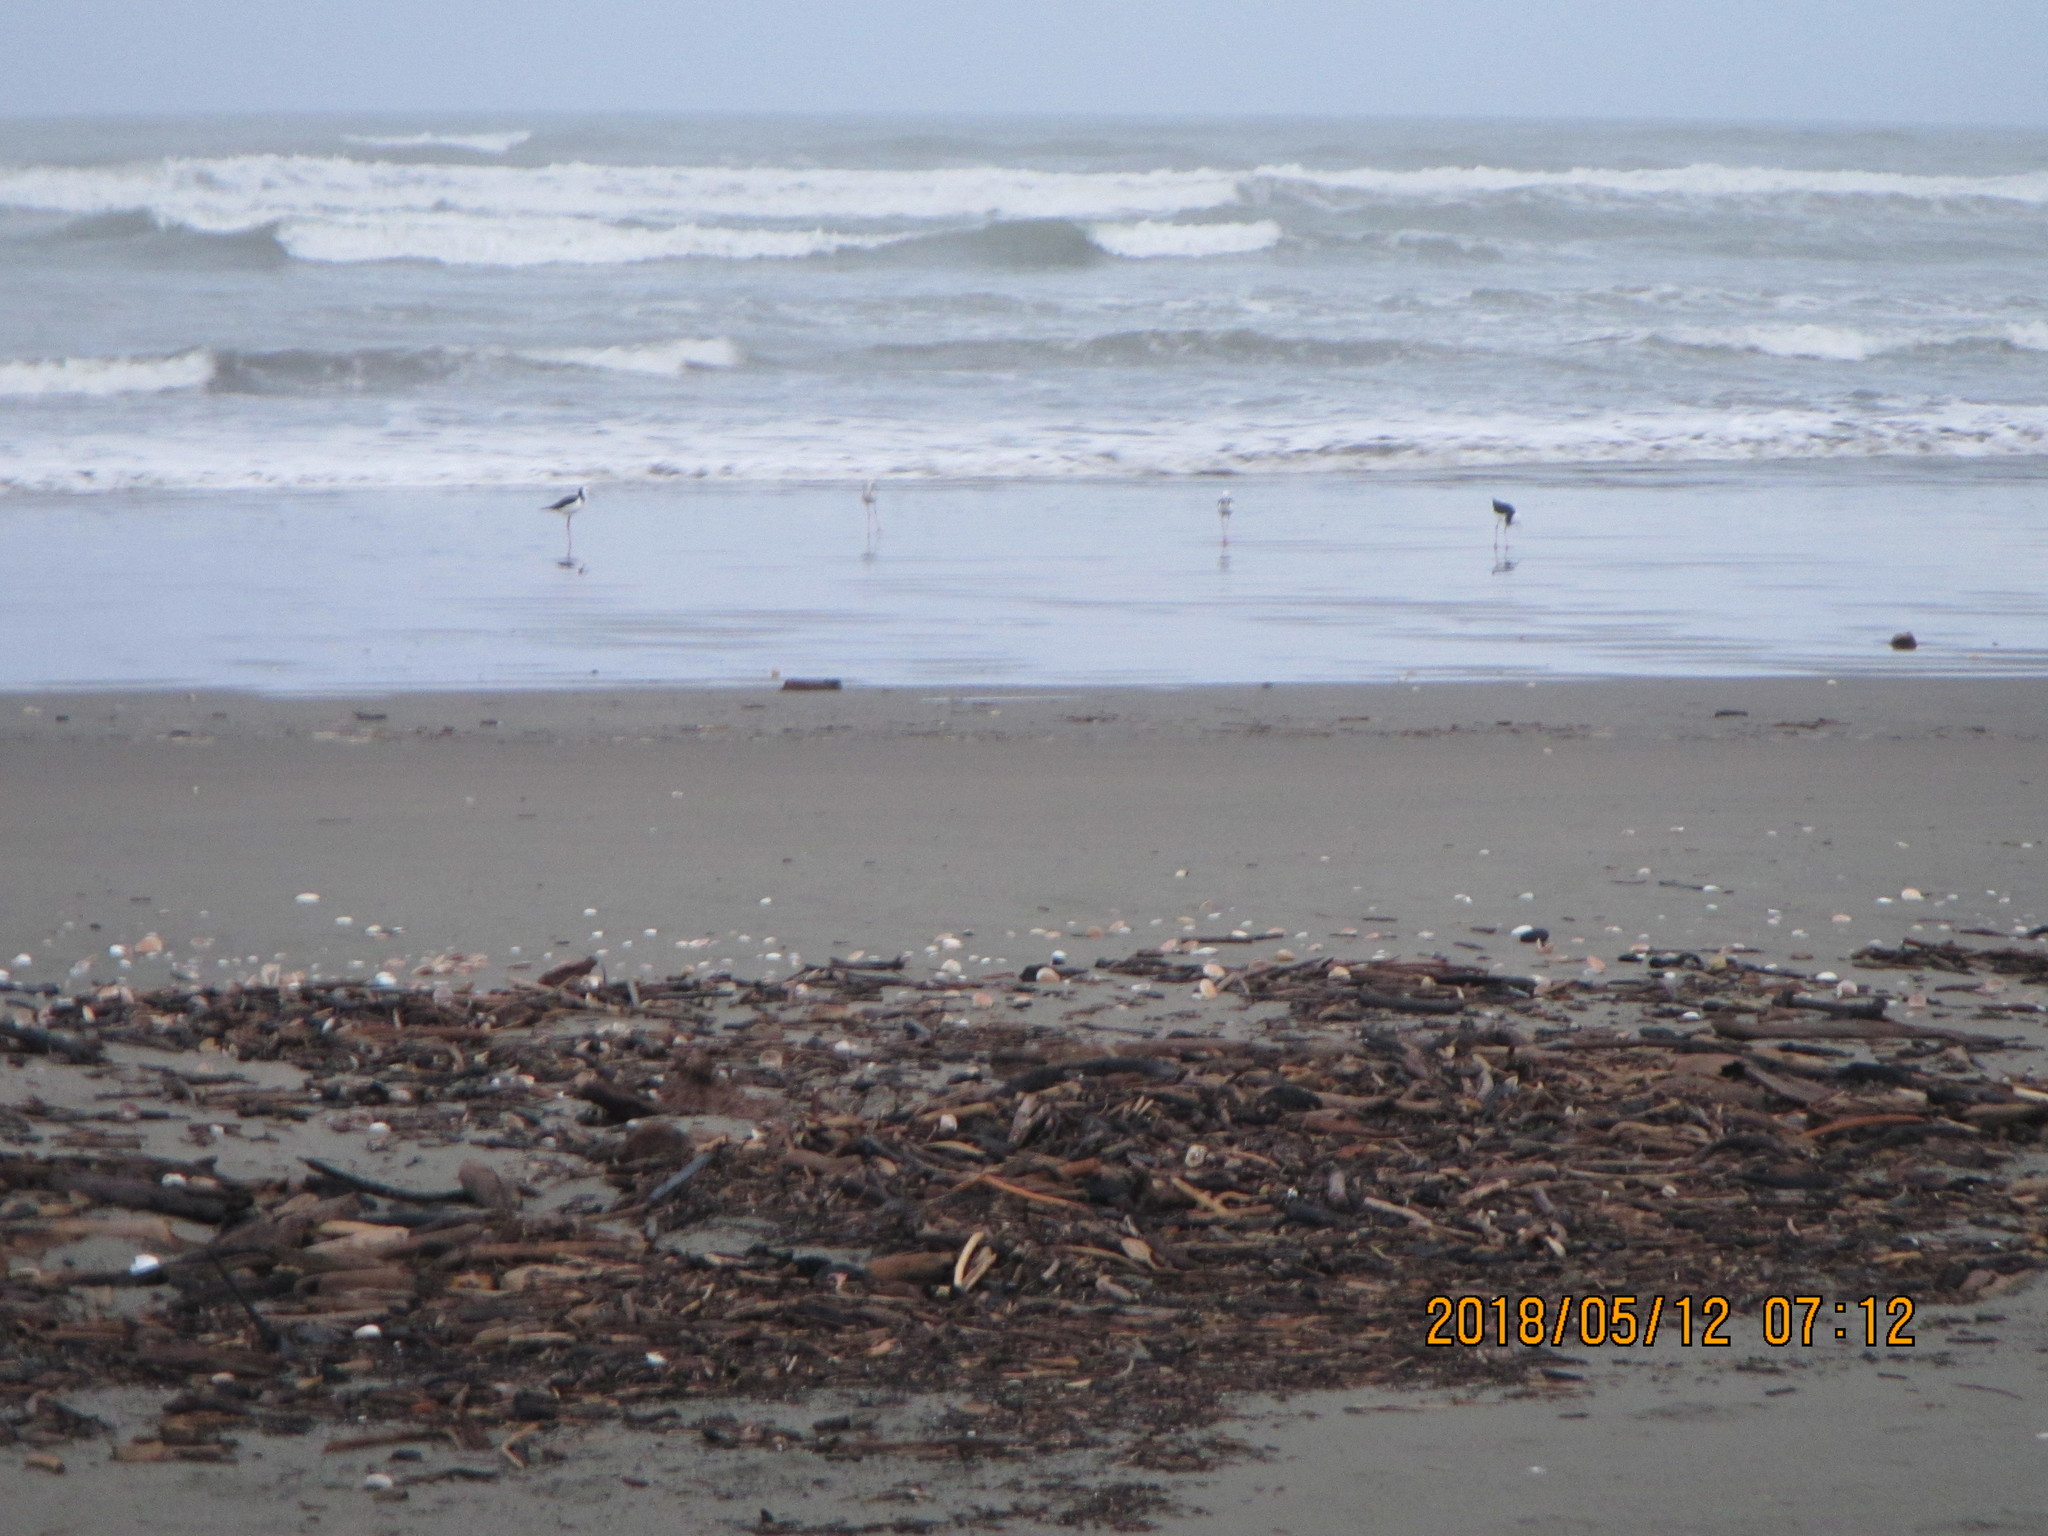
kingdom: Animalia
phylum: Chordata
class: Aves
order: Charadriiformes
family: Recurvirostridae
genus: Himantopus
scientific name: Himantopus leucocephalus
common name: White-headed stilt
